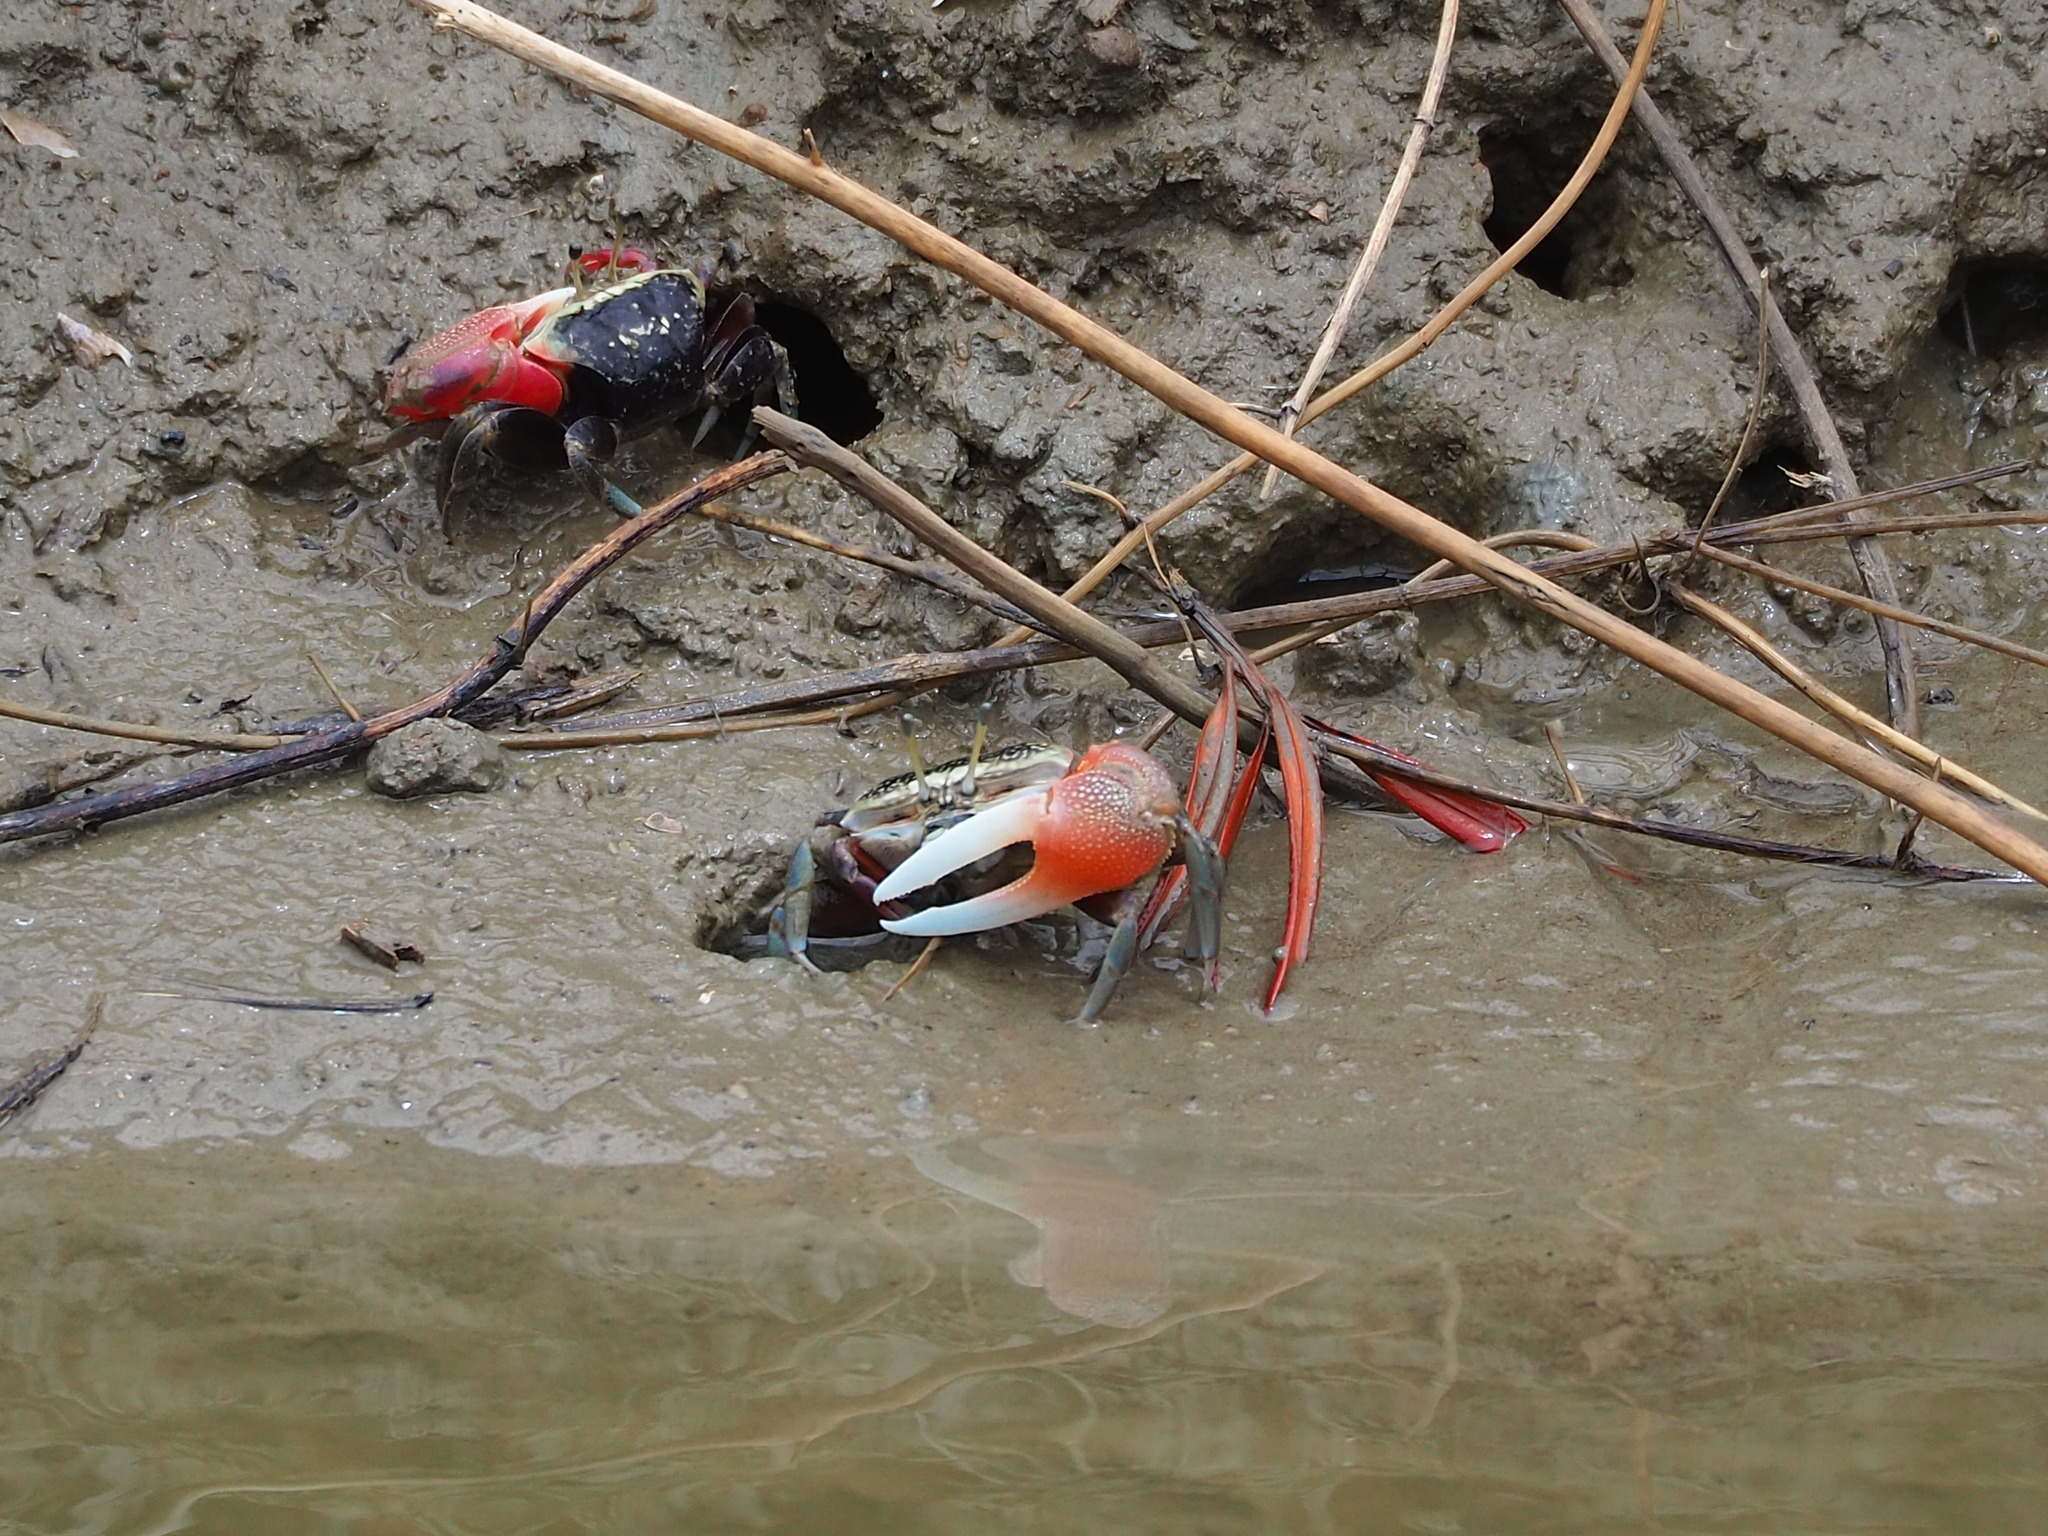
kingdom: Animalia
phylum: Arthropoda
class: Malacostraca
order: Decapoda
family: Ocypodidae
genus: Tubuca
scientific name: Tubuca arcuata
